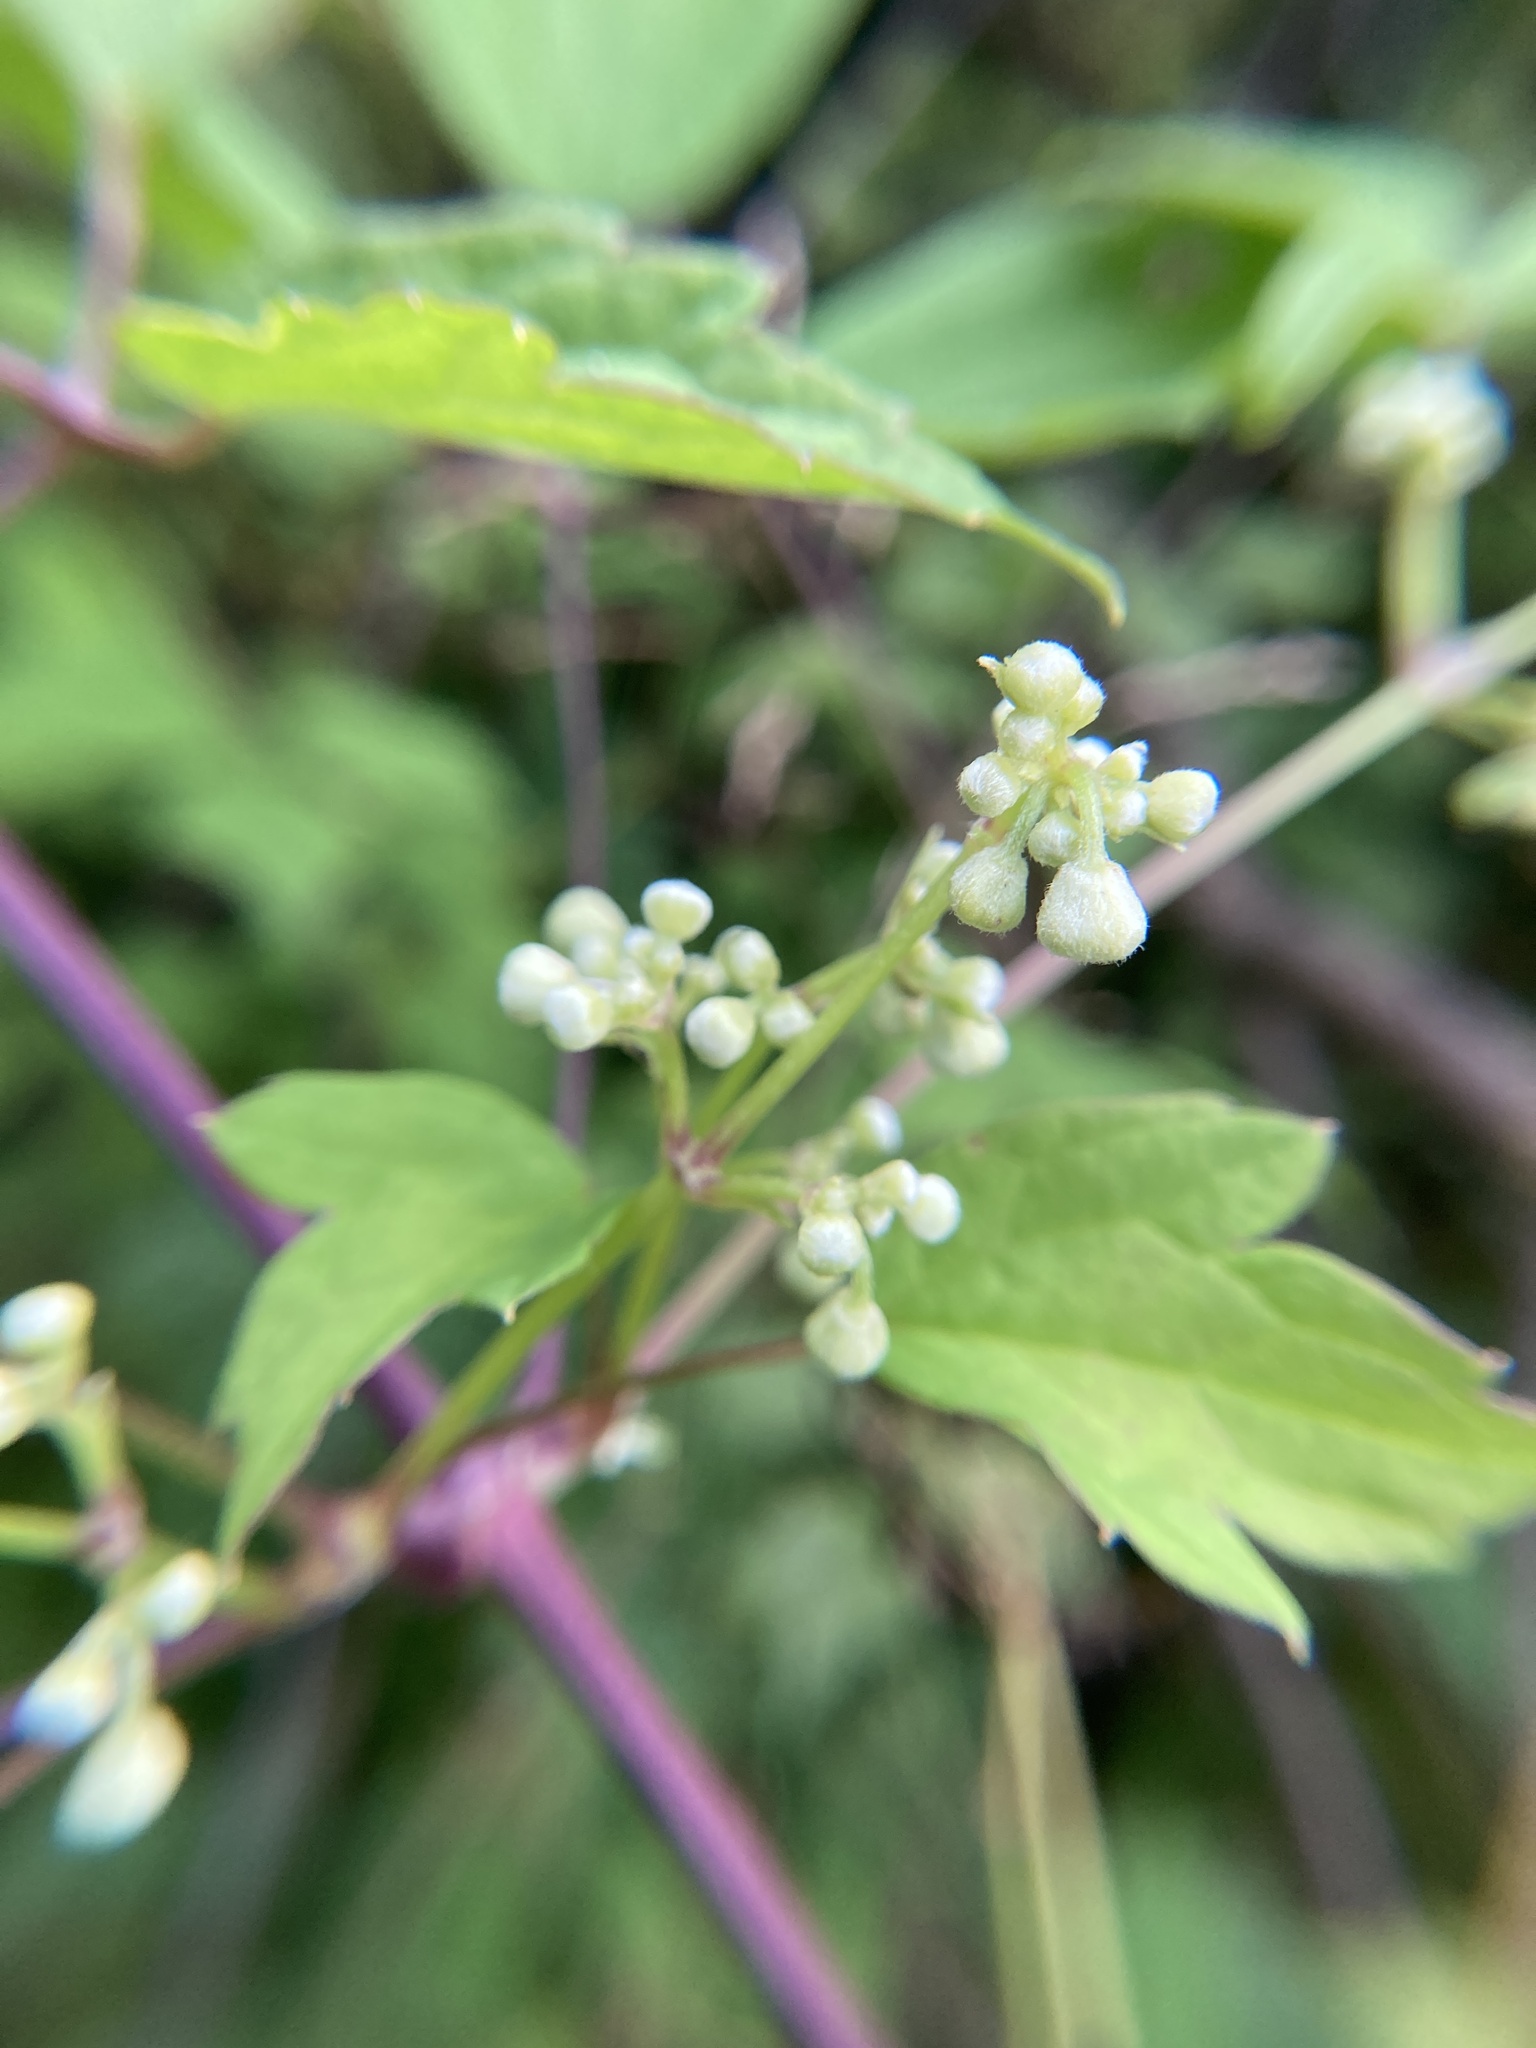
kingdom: Plantae
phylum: Tracheophyta
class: Magnoliopsida
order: Ranunculales
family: Ranunculaceae
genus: Clematis
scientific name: Clematis virginiana
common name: Virgin's-bower
